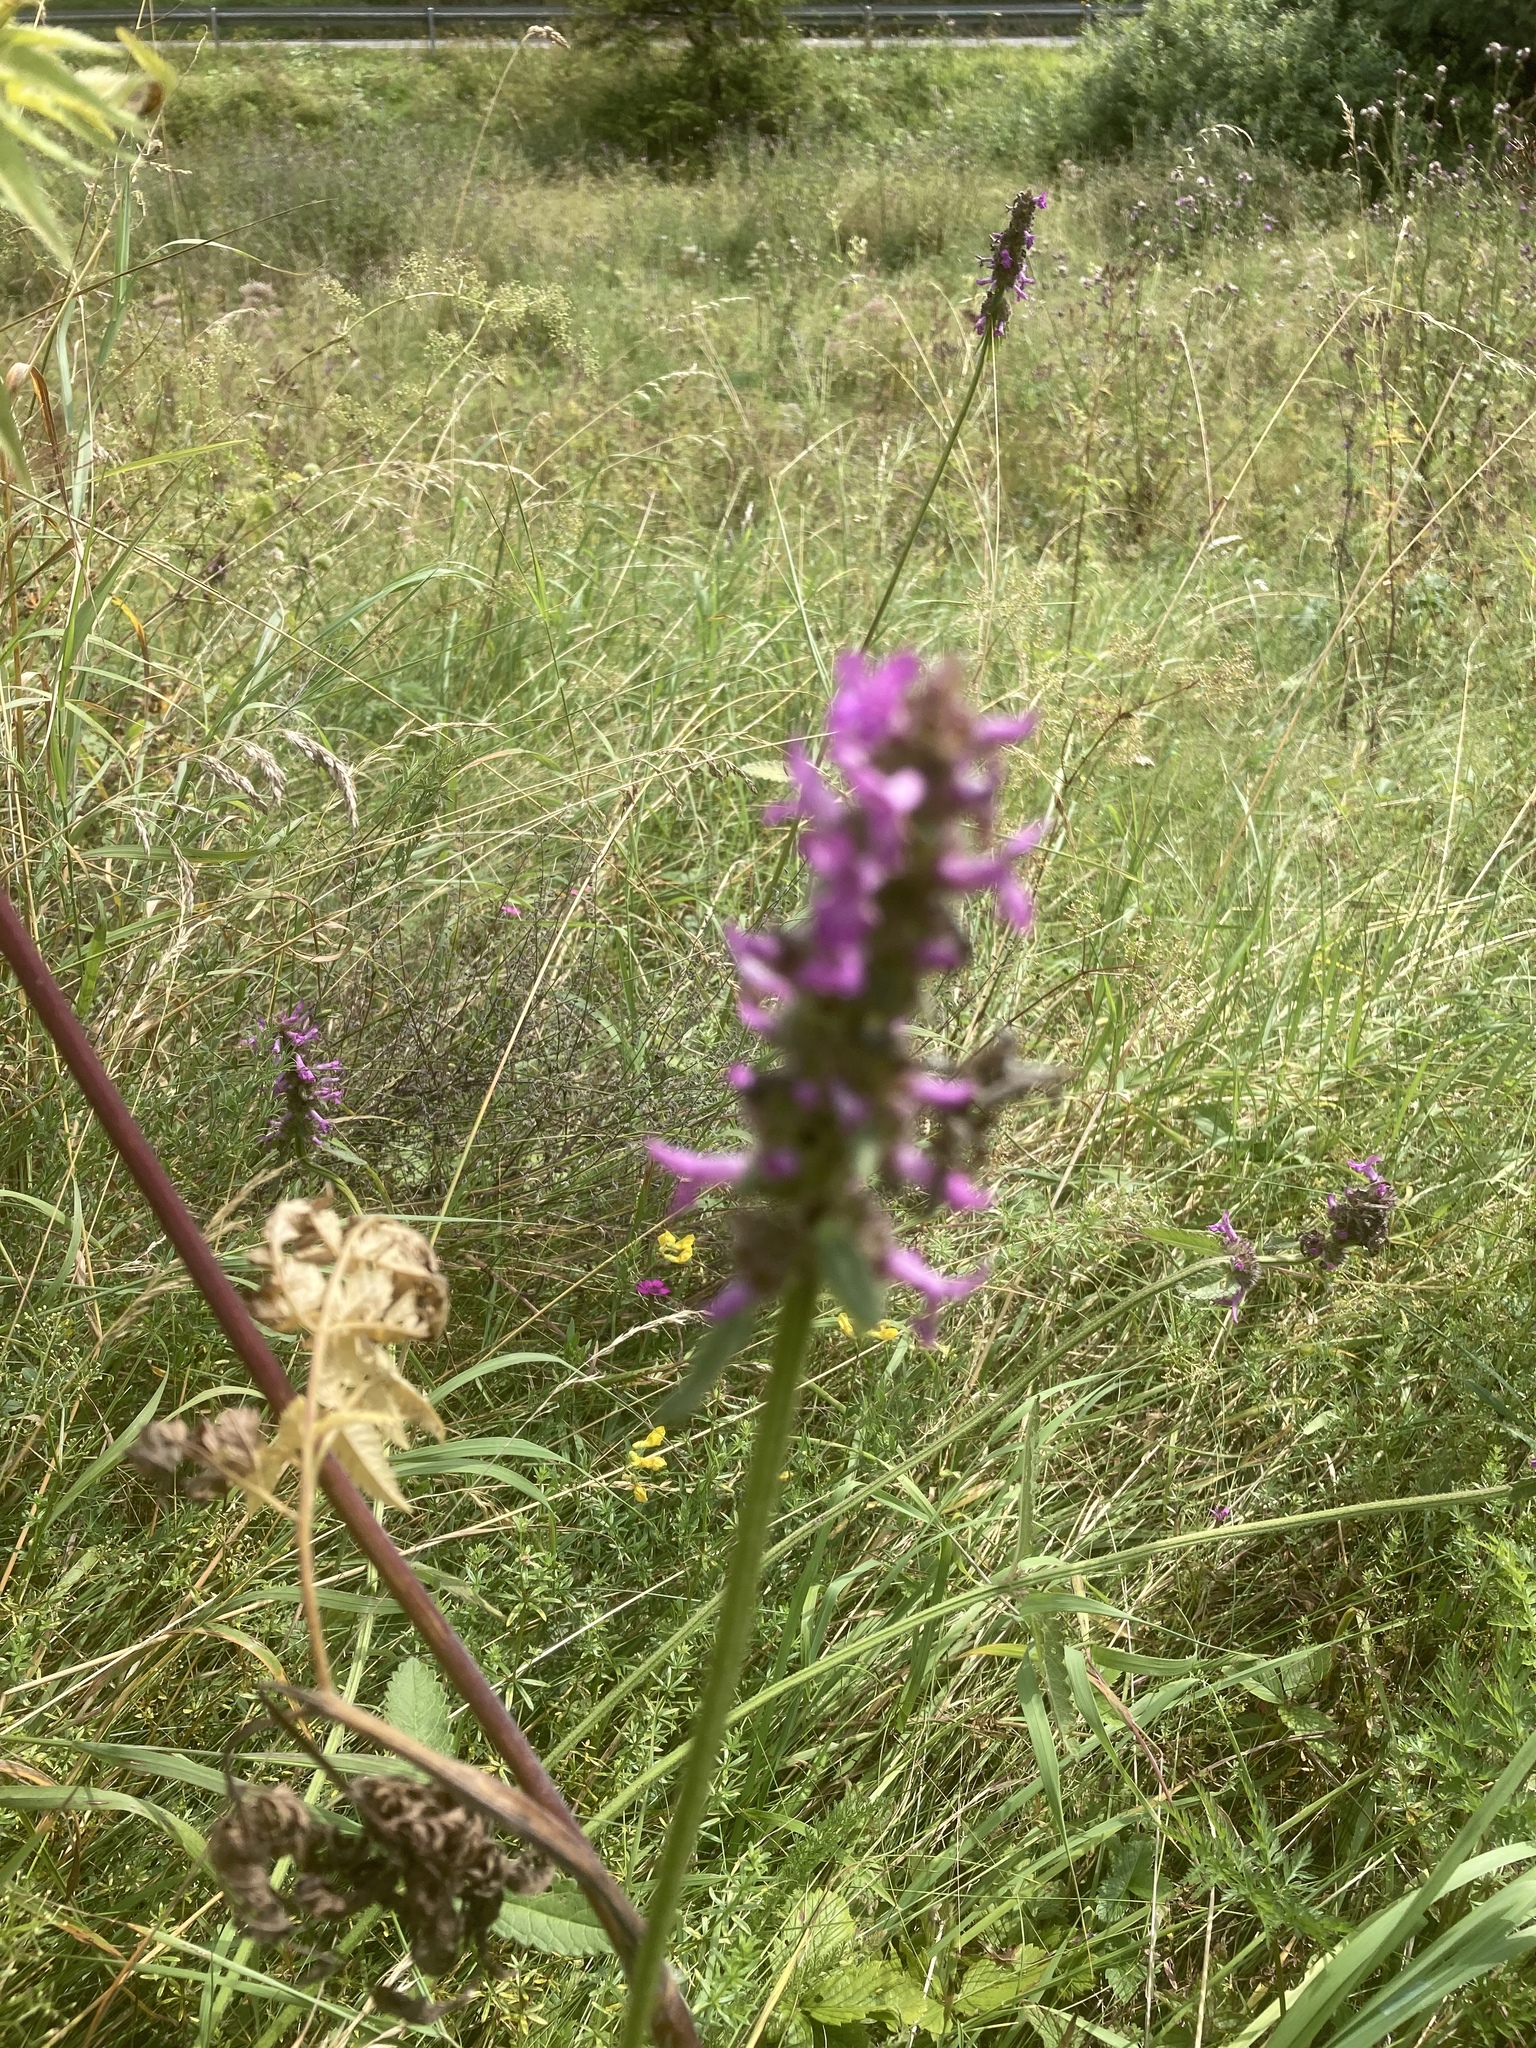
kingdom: Plantae
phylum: Tracheophyta
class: Magnoliopsida
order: Lamiales
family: Lamiaceae
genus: Betonica
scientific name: Betonica officinalis
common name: Bishop's-wort
